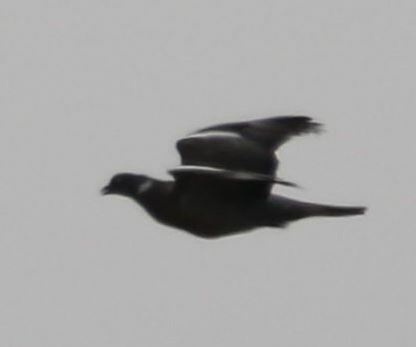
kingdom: Animalia
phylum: Chordata
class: Aves
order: Columbiformes
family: Columbidae
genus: Columba
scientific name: Columba palumbus
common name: Common wood pigeon
